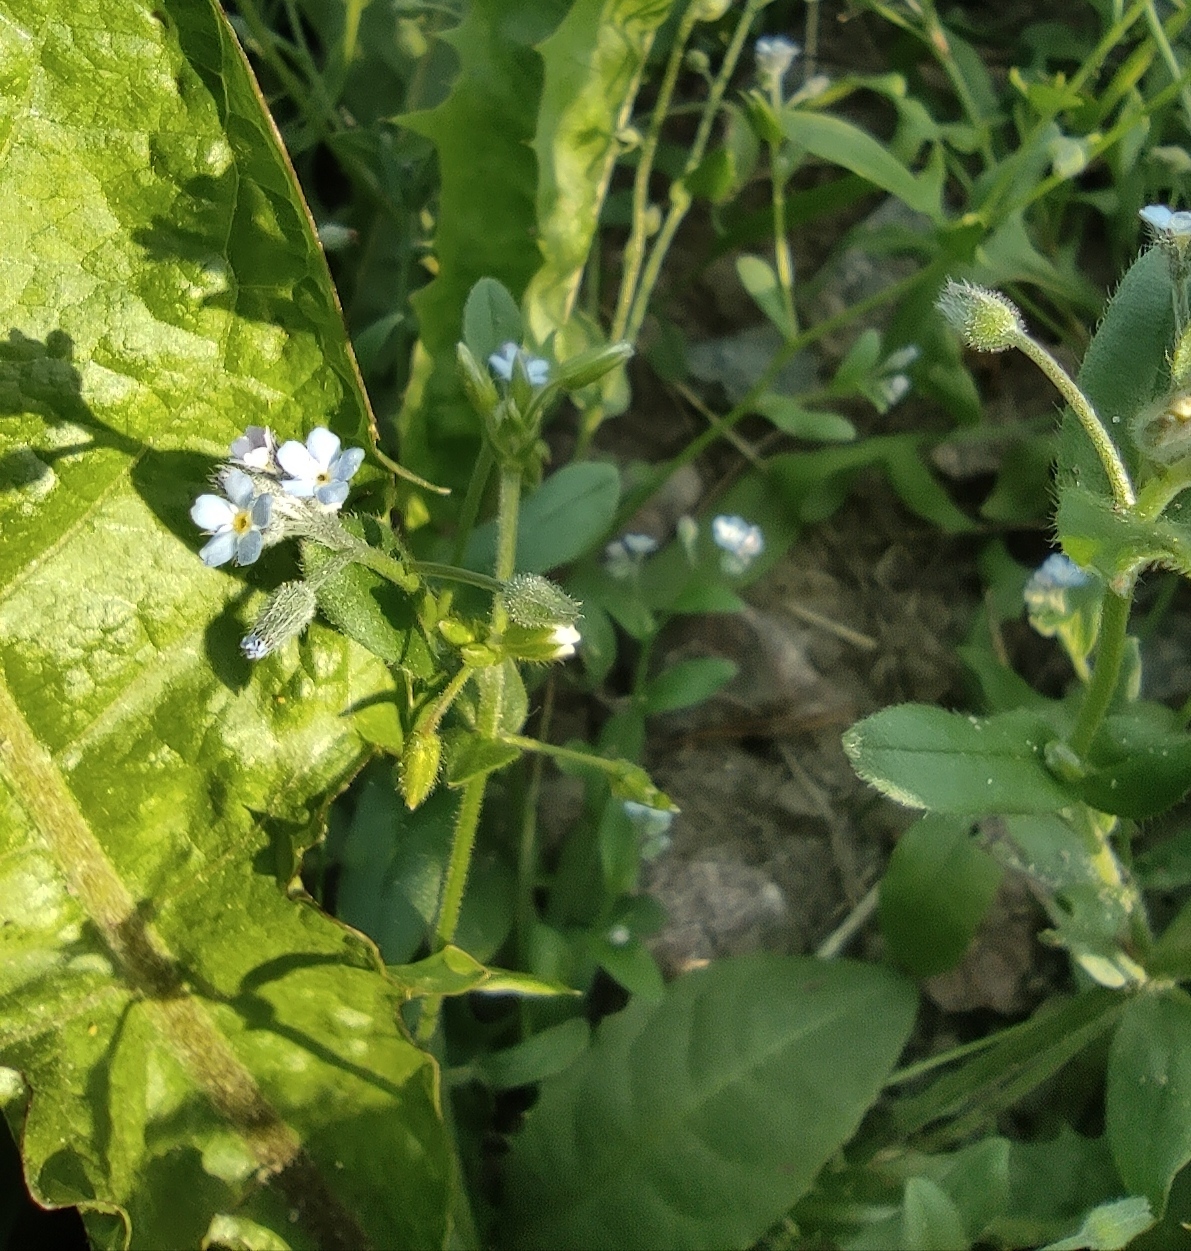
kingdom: Plantae
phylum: Tracheophyta
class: Magnoliopsida
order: Boraginales
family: Boraginaceae
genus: Myosotis
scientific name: Myosotis arvensis
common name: Field forget-me-not
